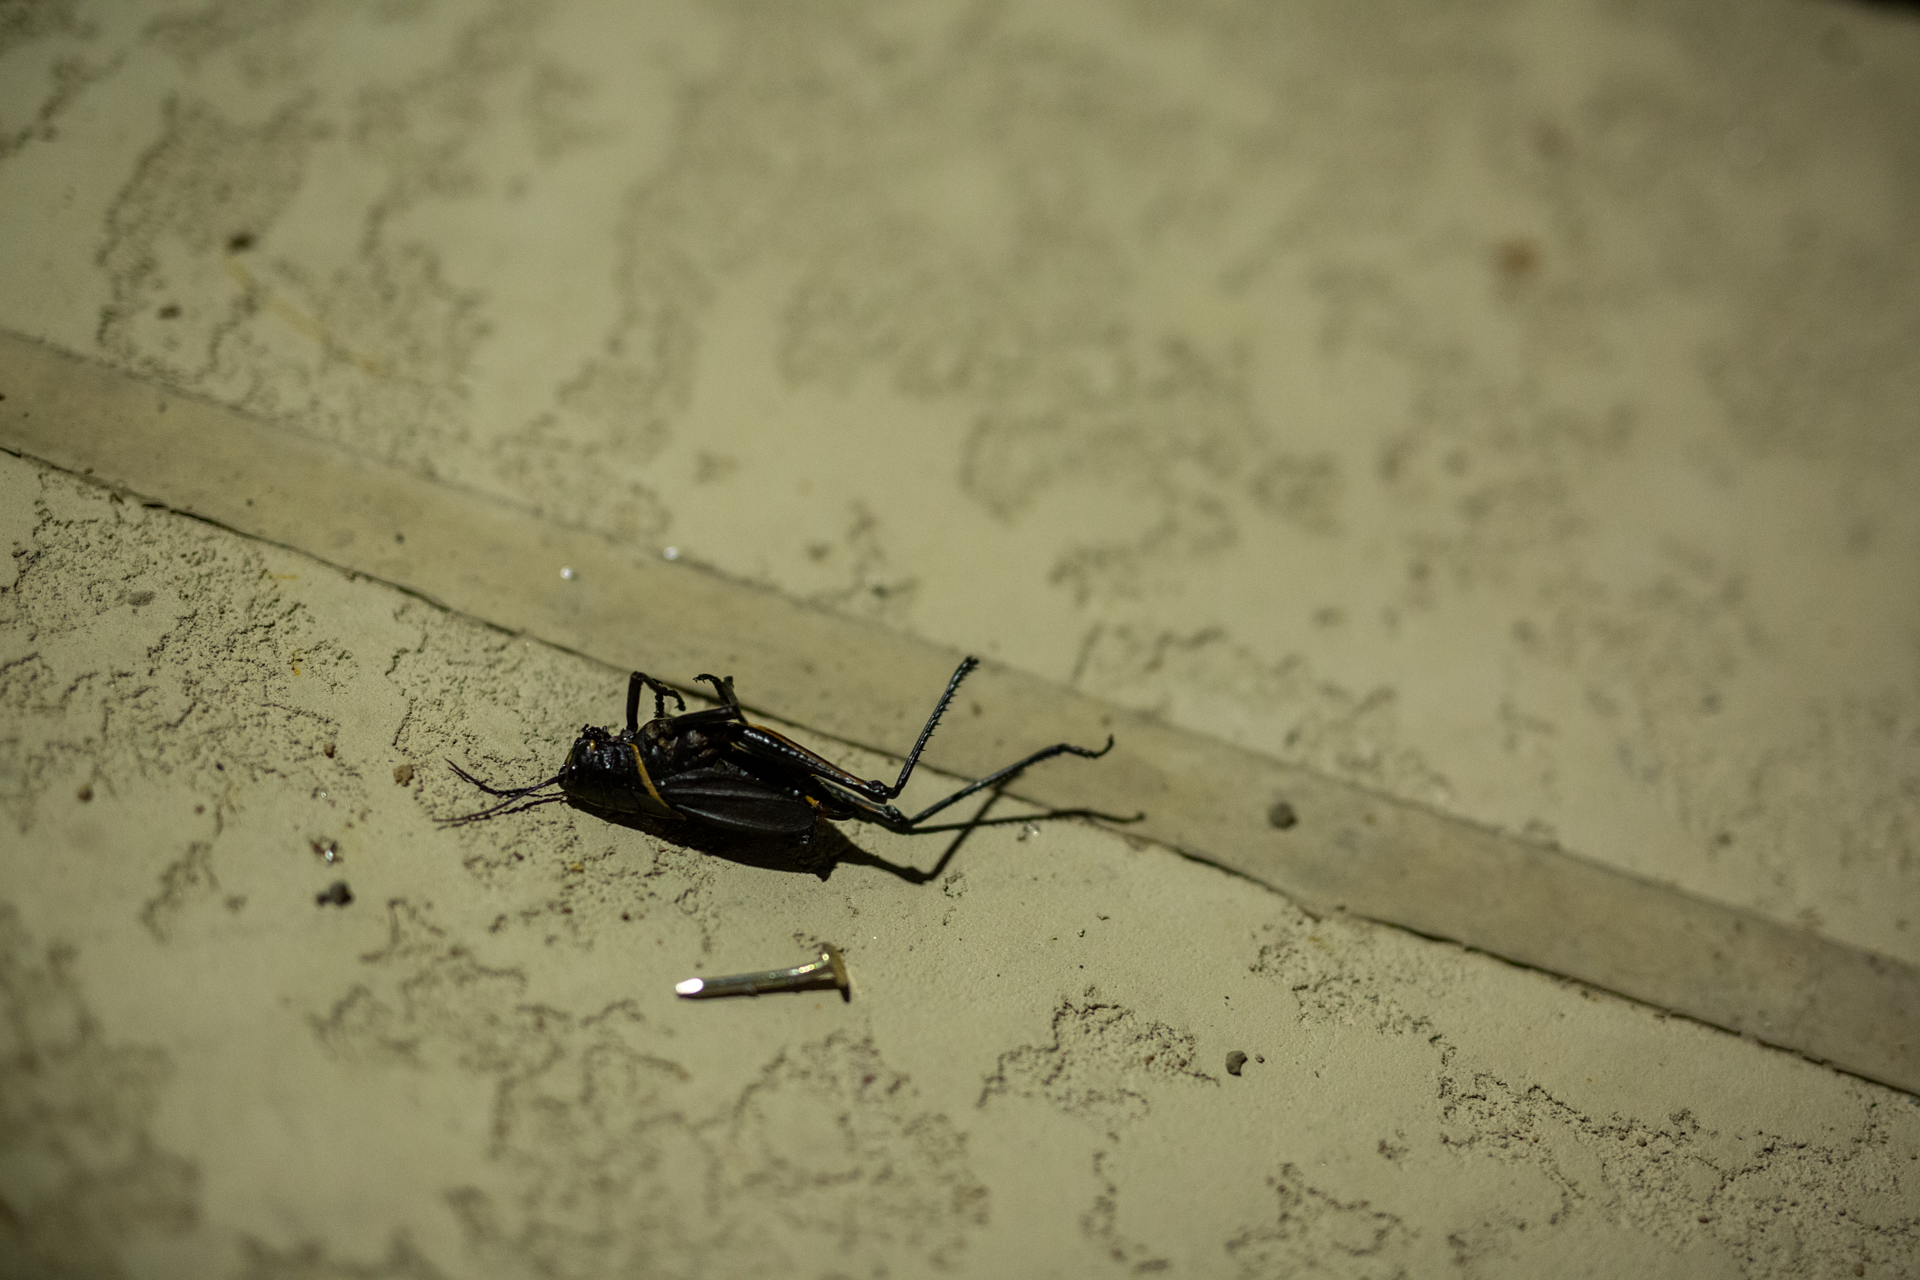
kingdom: Animalia
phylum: Arthropoda
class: Insecta
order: Orthoptera
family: Romaleidae
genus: Romalea
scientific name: Romalea microptera
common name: Eastern lubber grasshopper
